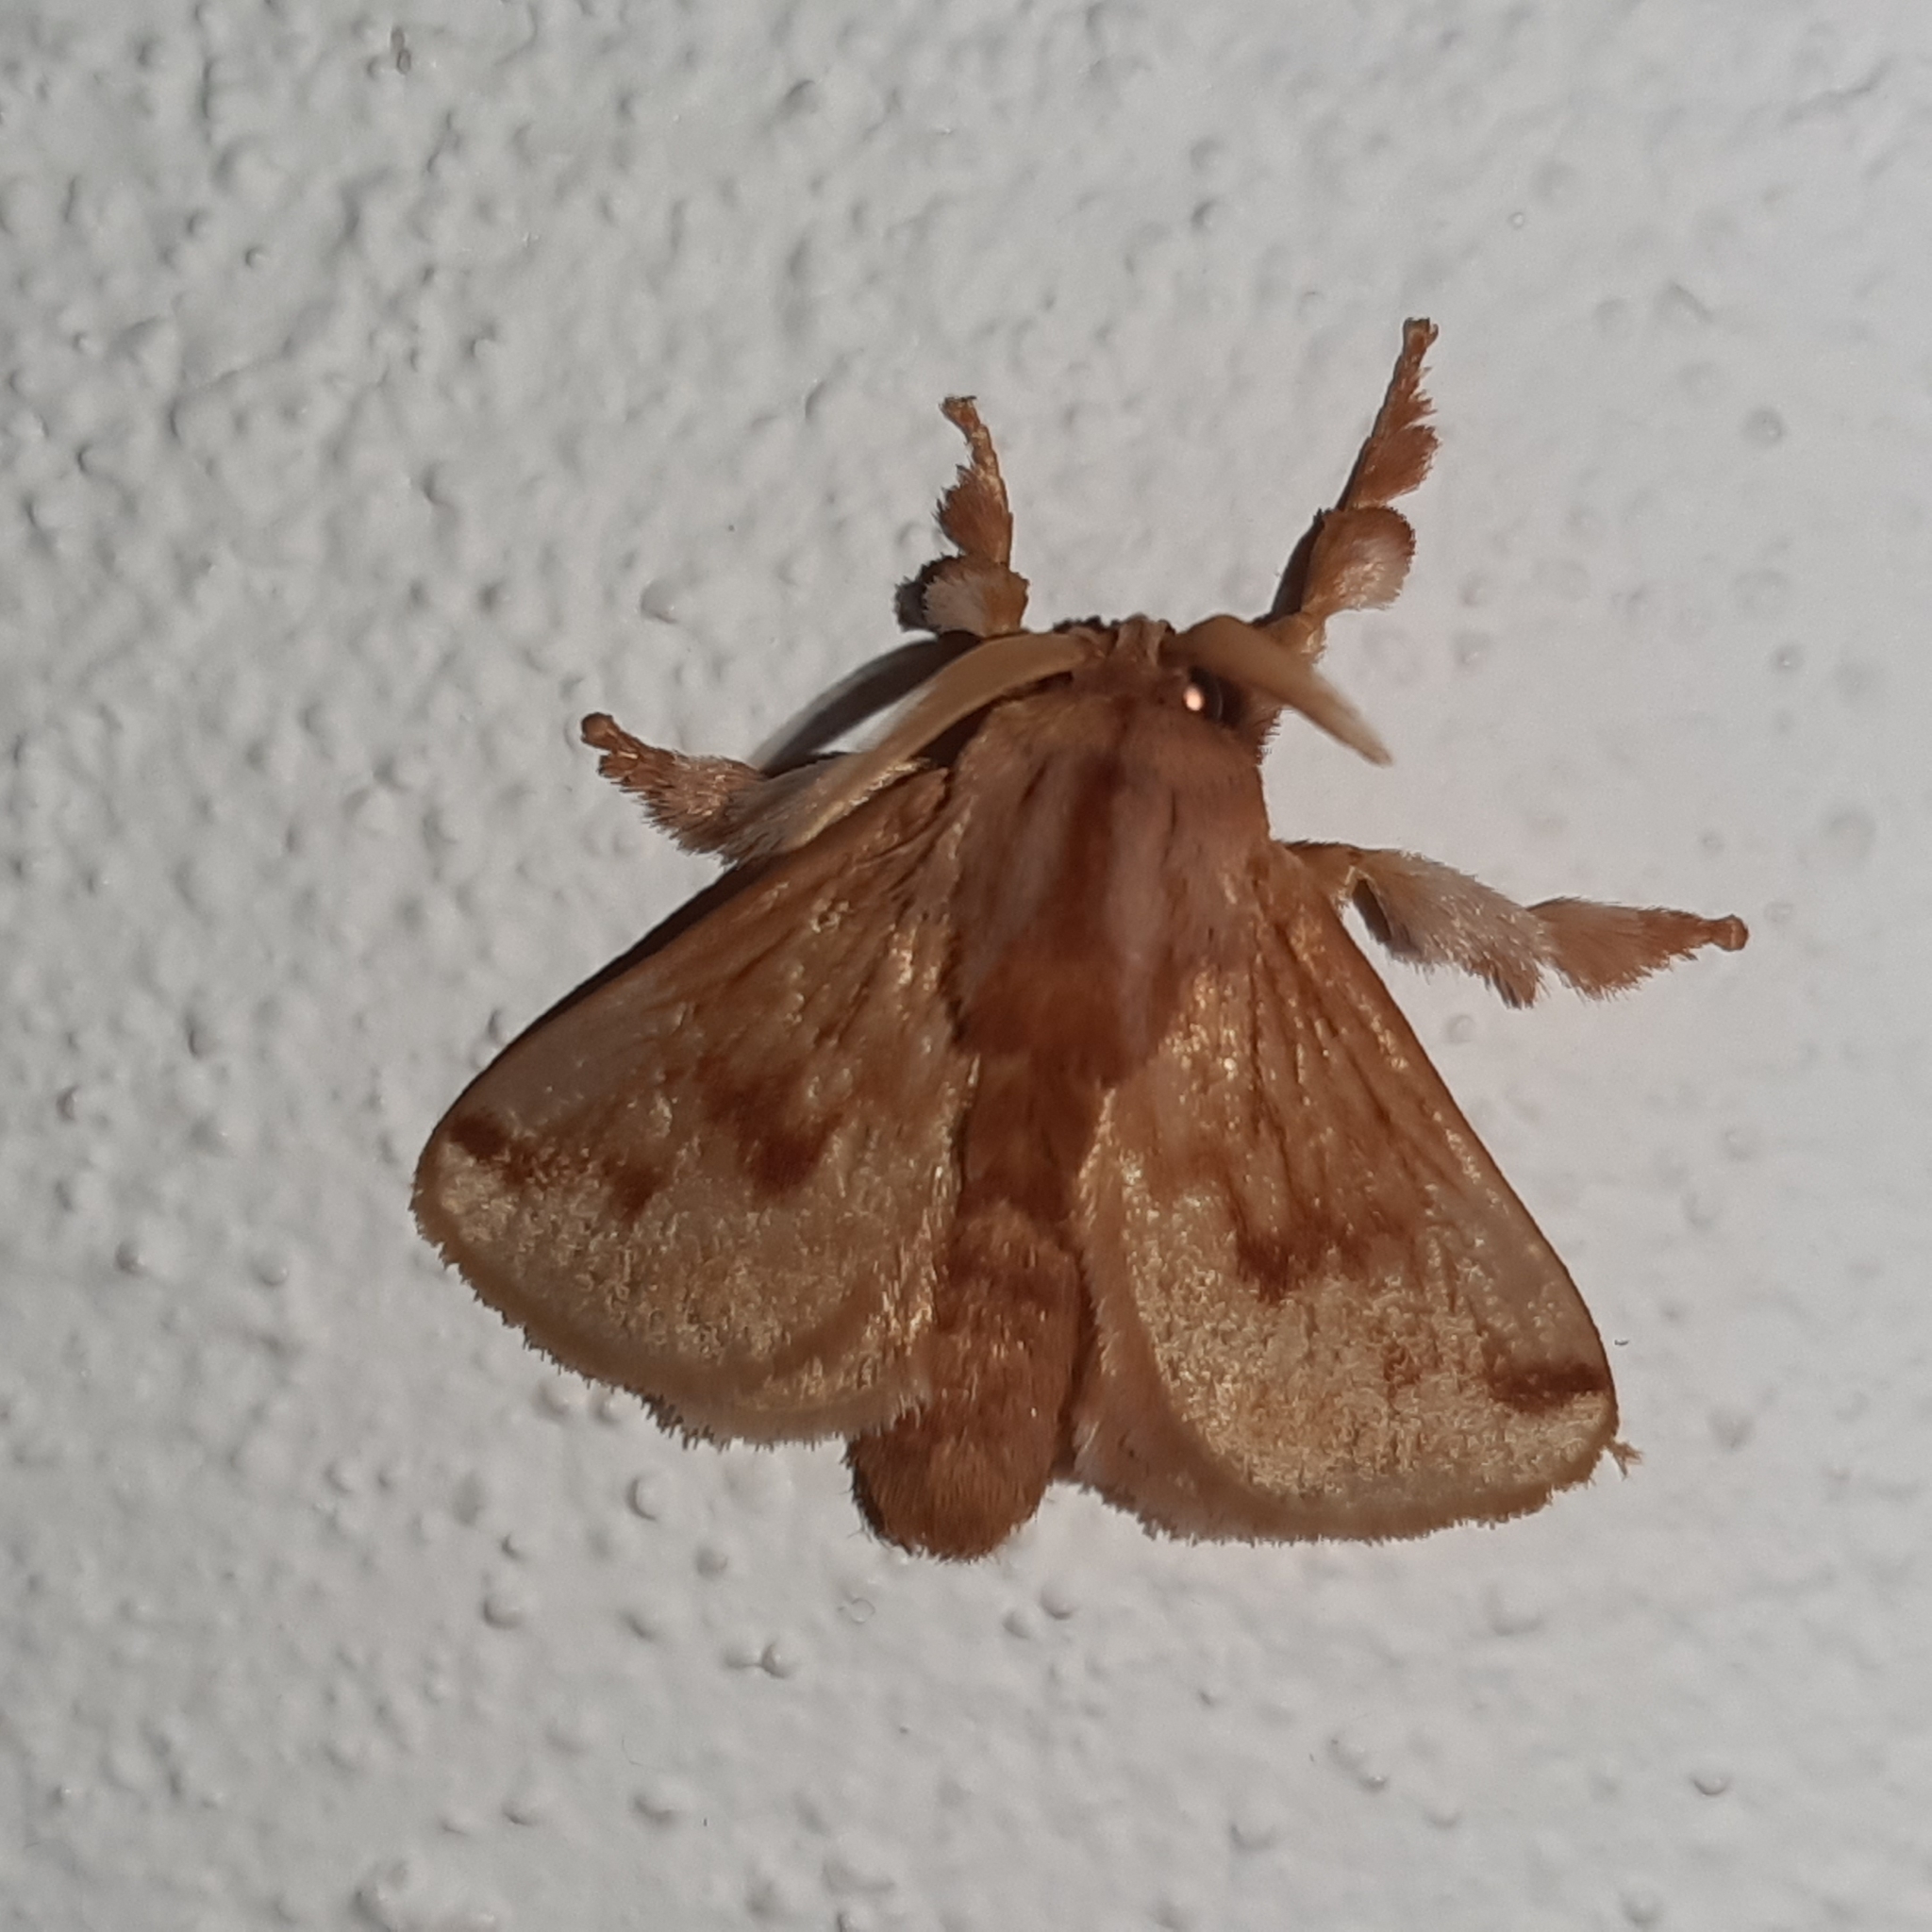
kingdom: Animalia
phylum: Arthropoda
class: Insecta
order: Lepidoptera
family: Limacodidae
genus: Perola
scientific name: Perola sericea
